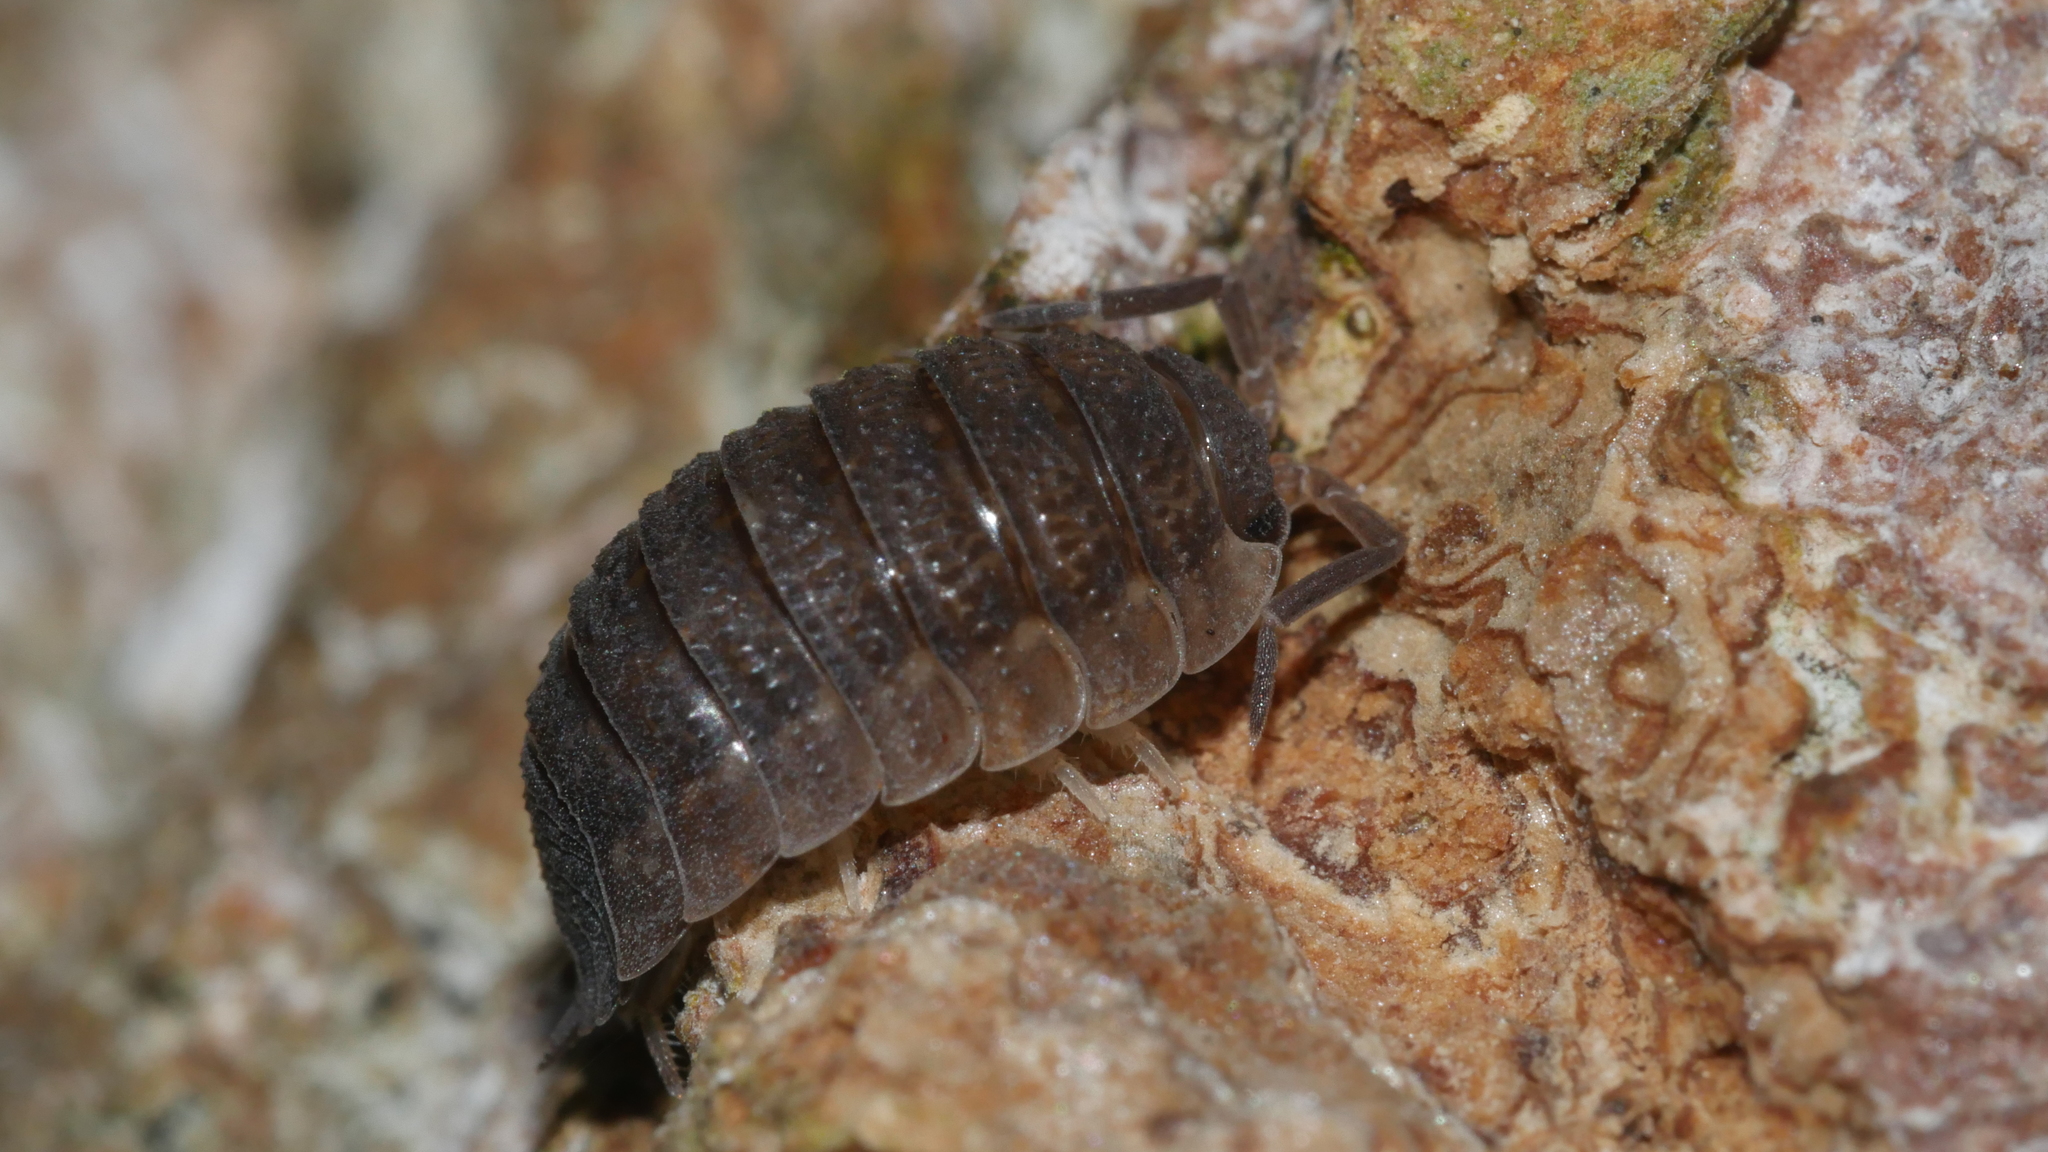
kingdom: Animalia
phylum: Arthropoda
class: Malacostraca
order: Isopoda
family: Porcellionidae
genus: Porcellio
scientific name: Porcellio scaber
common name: Common rough woodlouse
